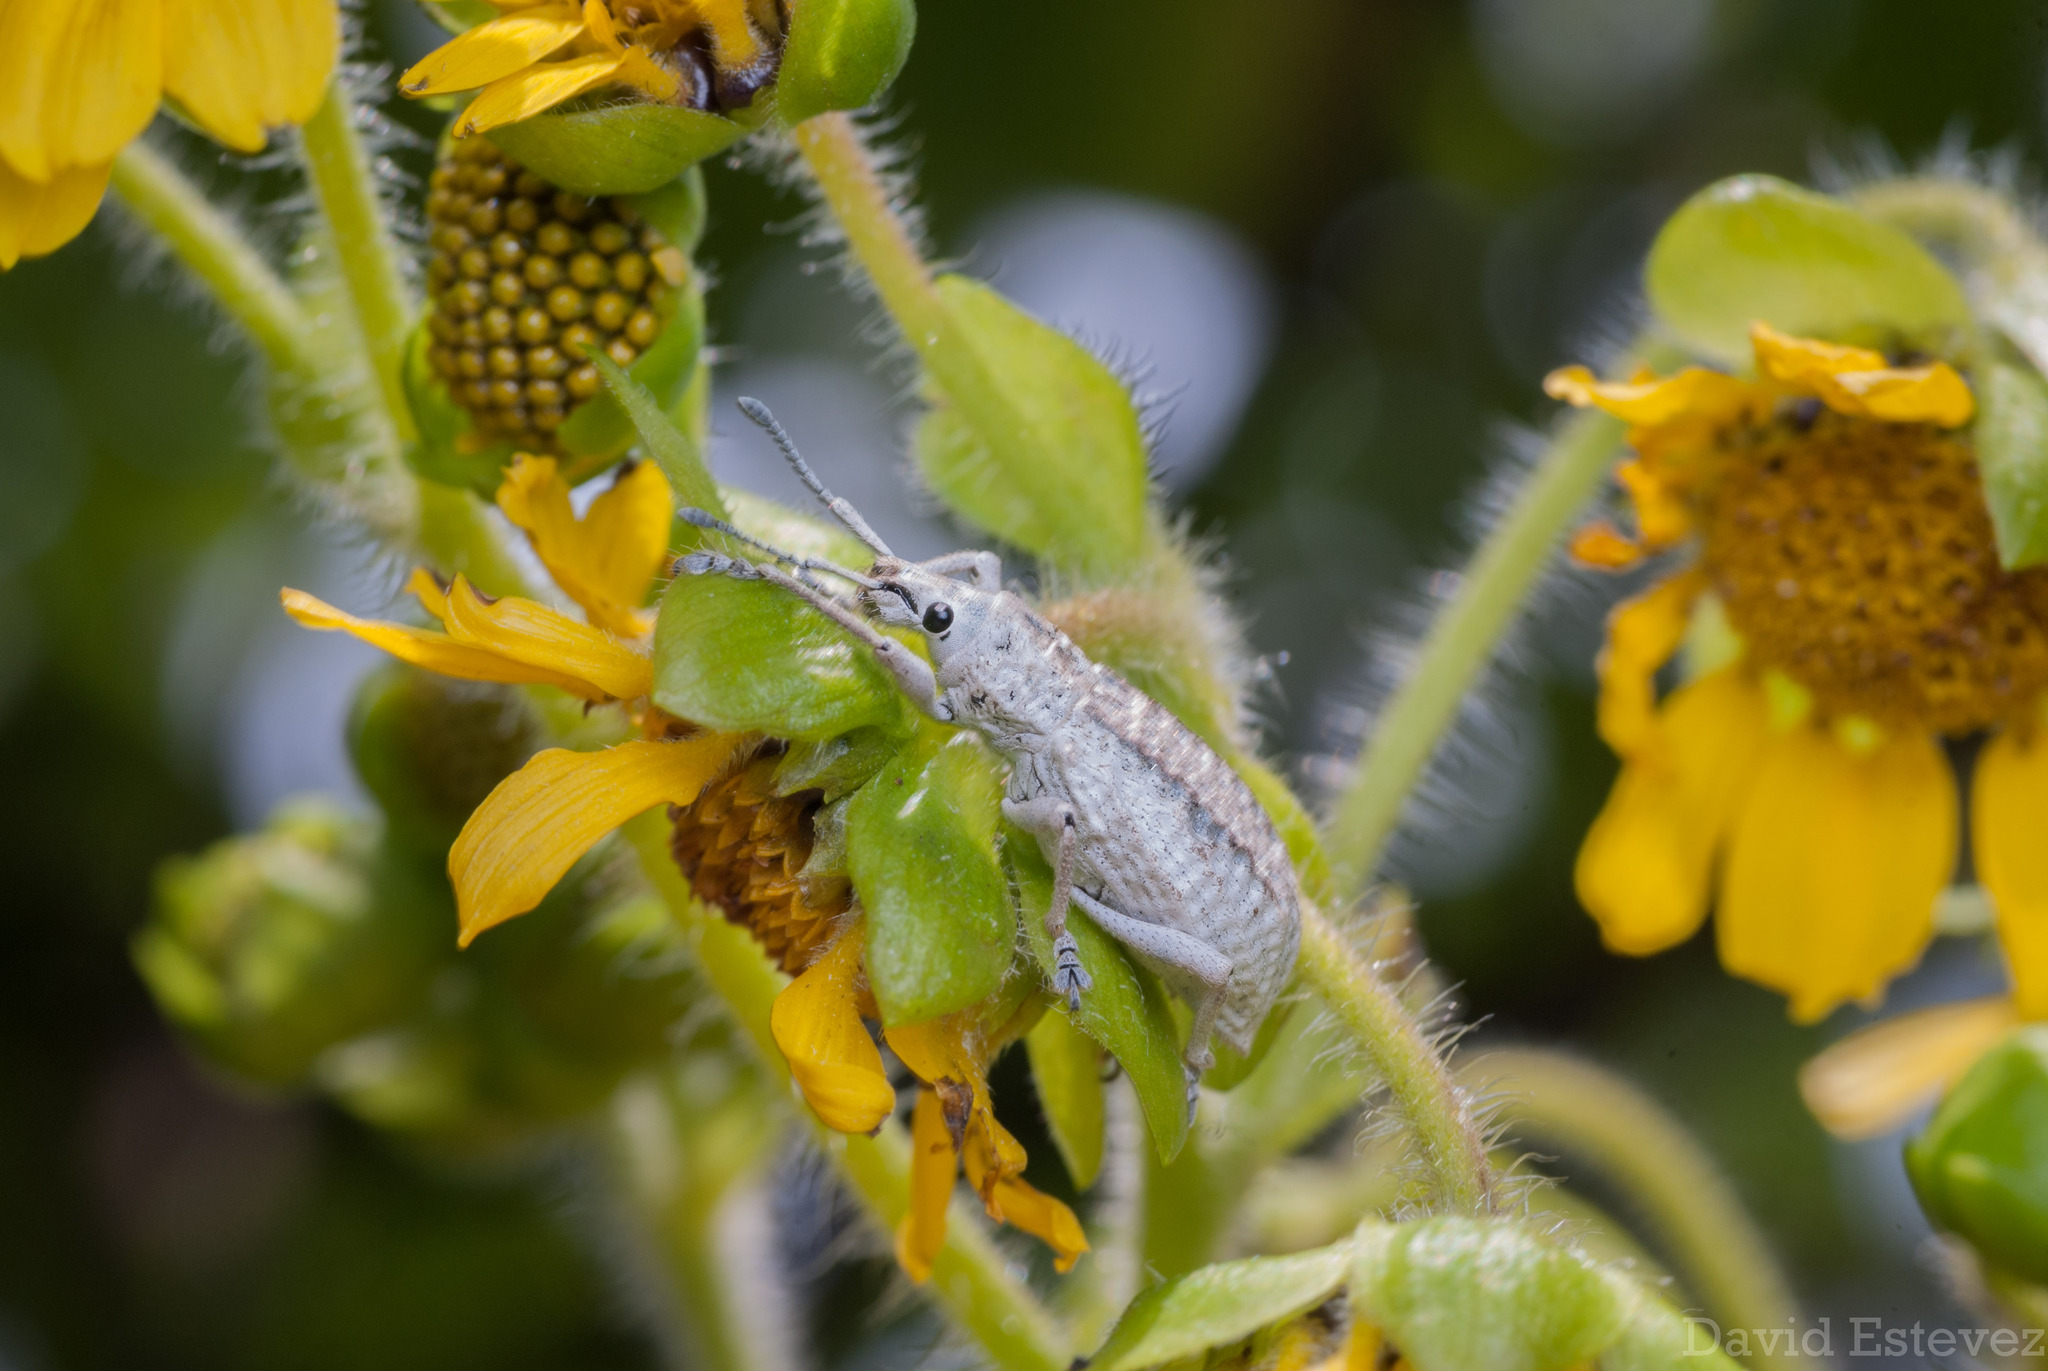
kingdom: Animalia
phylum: Arthropoda
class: Insecta
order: Coleoptera
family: Curculionidae
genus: Compsus
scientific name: Compsus canescens
